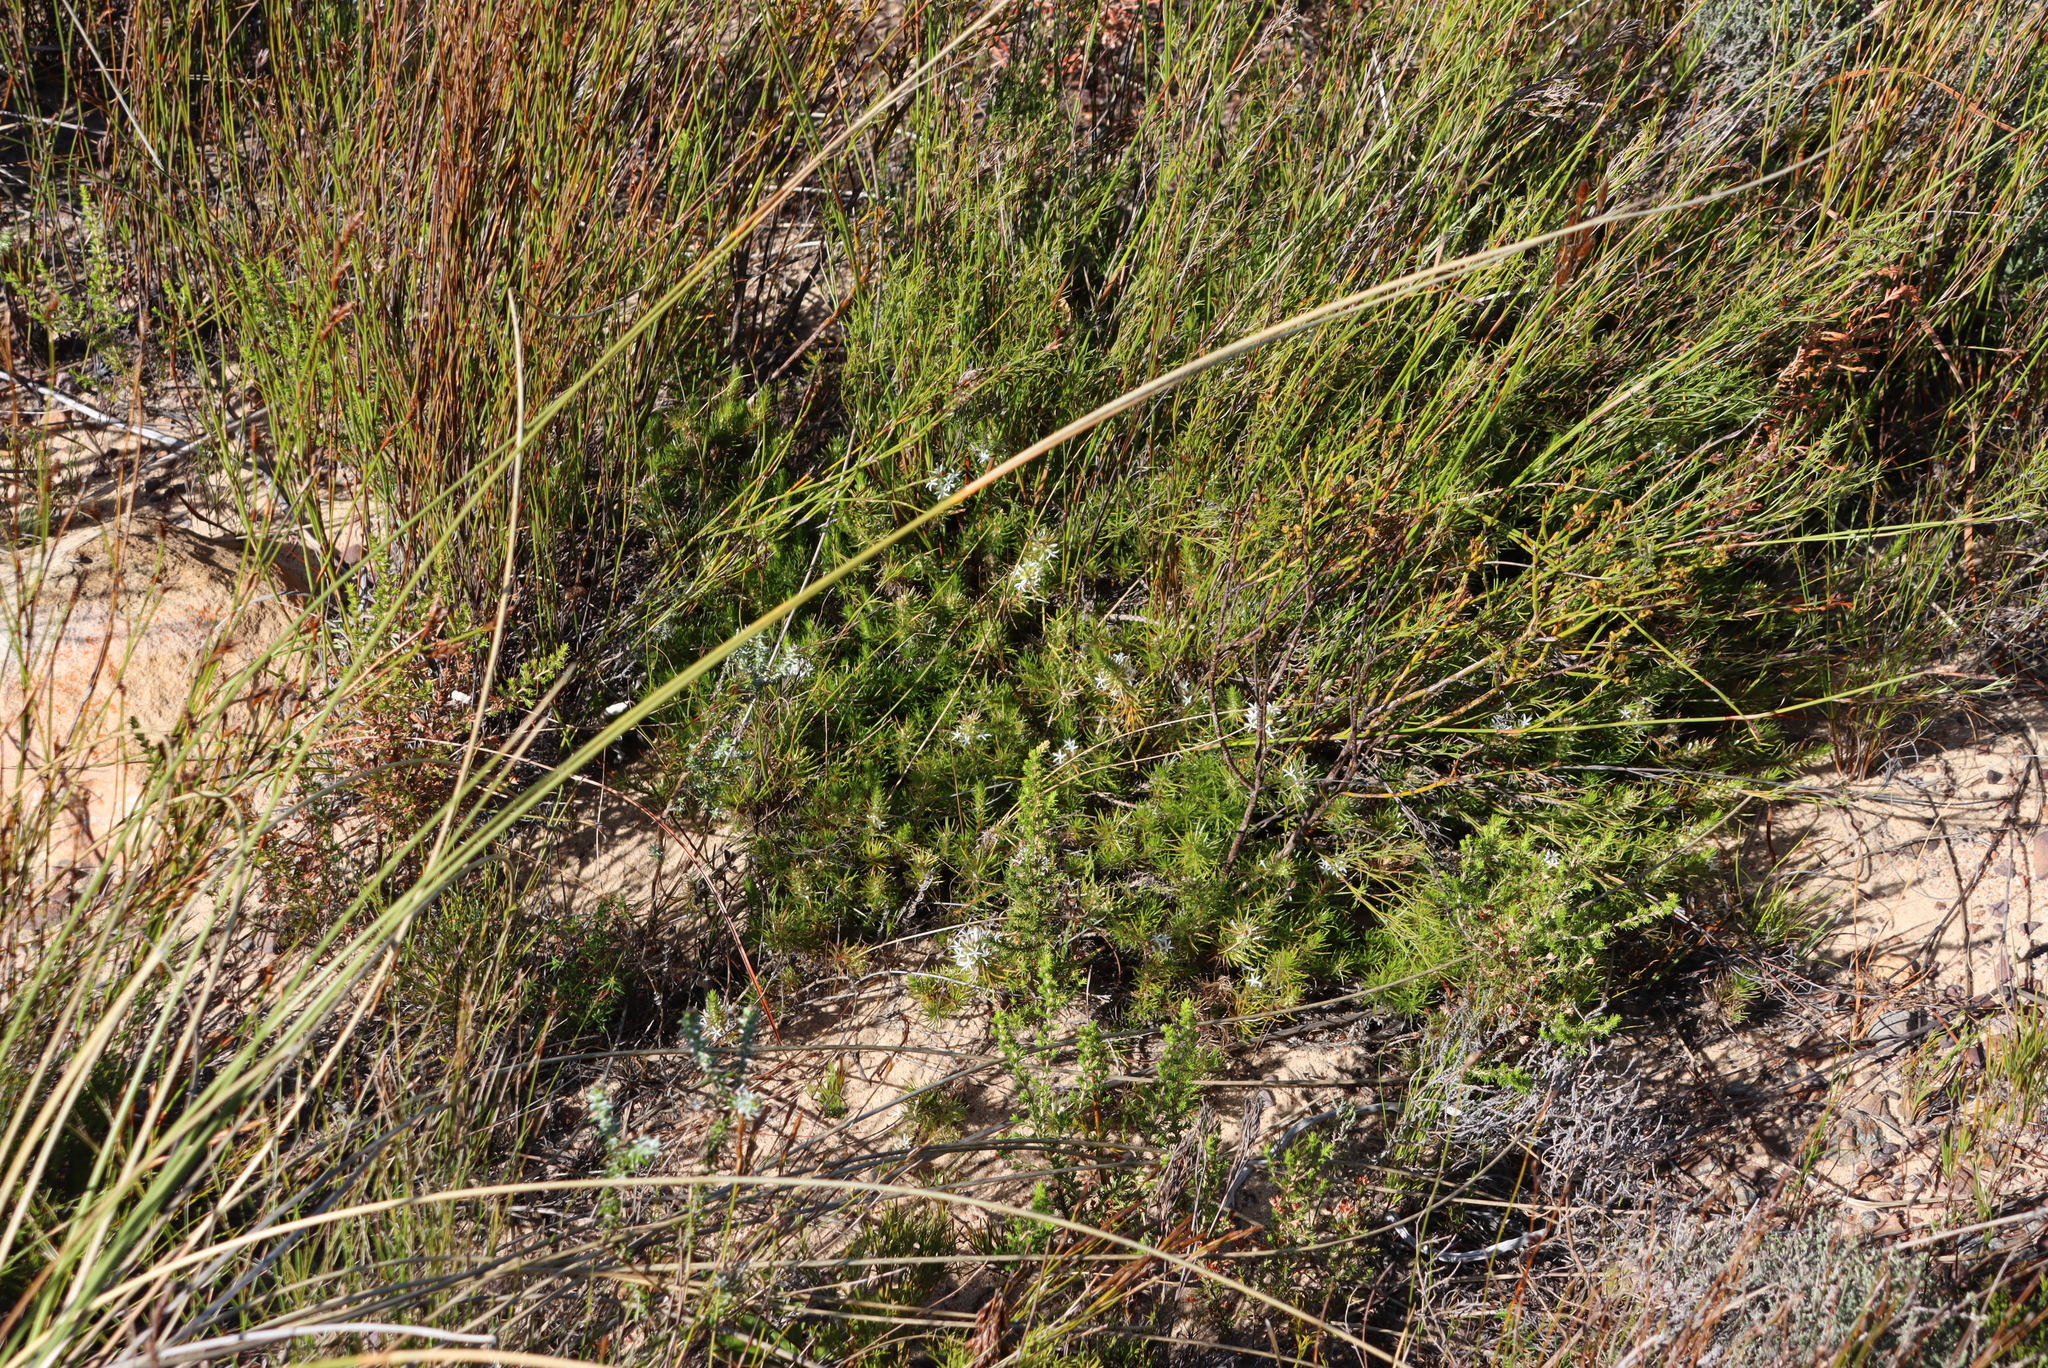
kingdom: Plantae
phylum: Tracheophyta
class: Magnoliopsida
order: Asterales
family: Campanulaceae
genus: Merciera
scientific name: Merciera leptoloba
